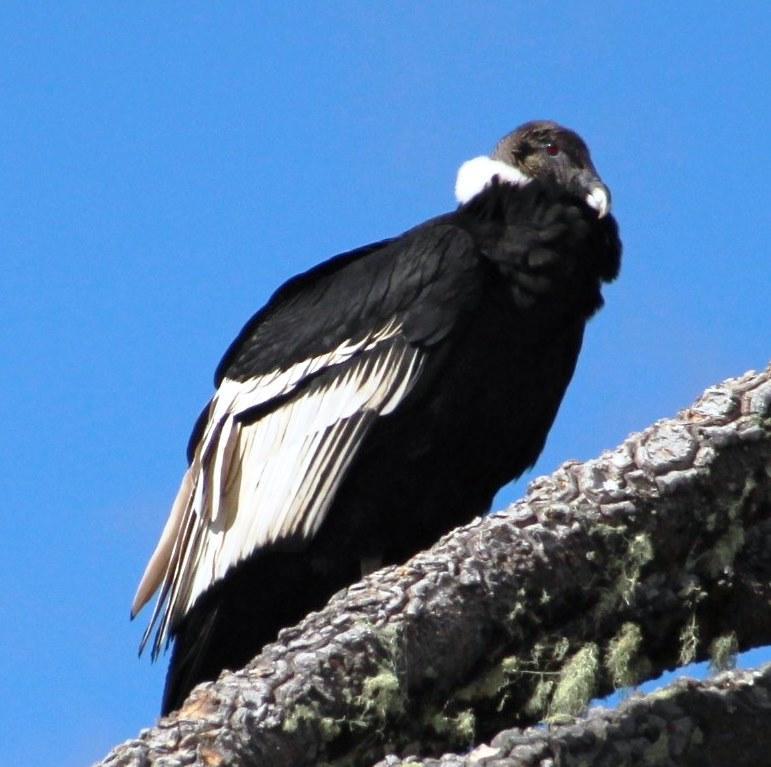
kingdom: Animalia
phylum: Chordata
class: Aves
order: Accipitriformes
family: Cathartidae
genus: Vultur
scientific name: Vultur gryphus
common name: Andean condor
